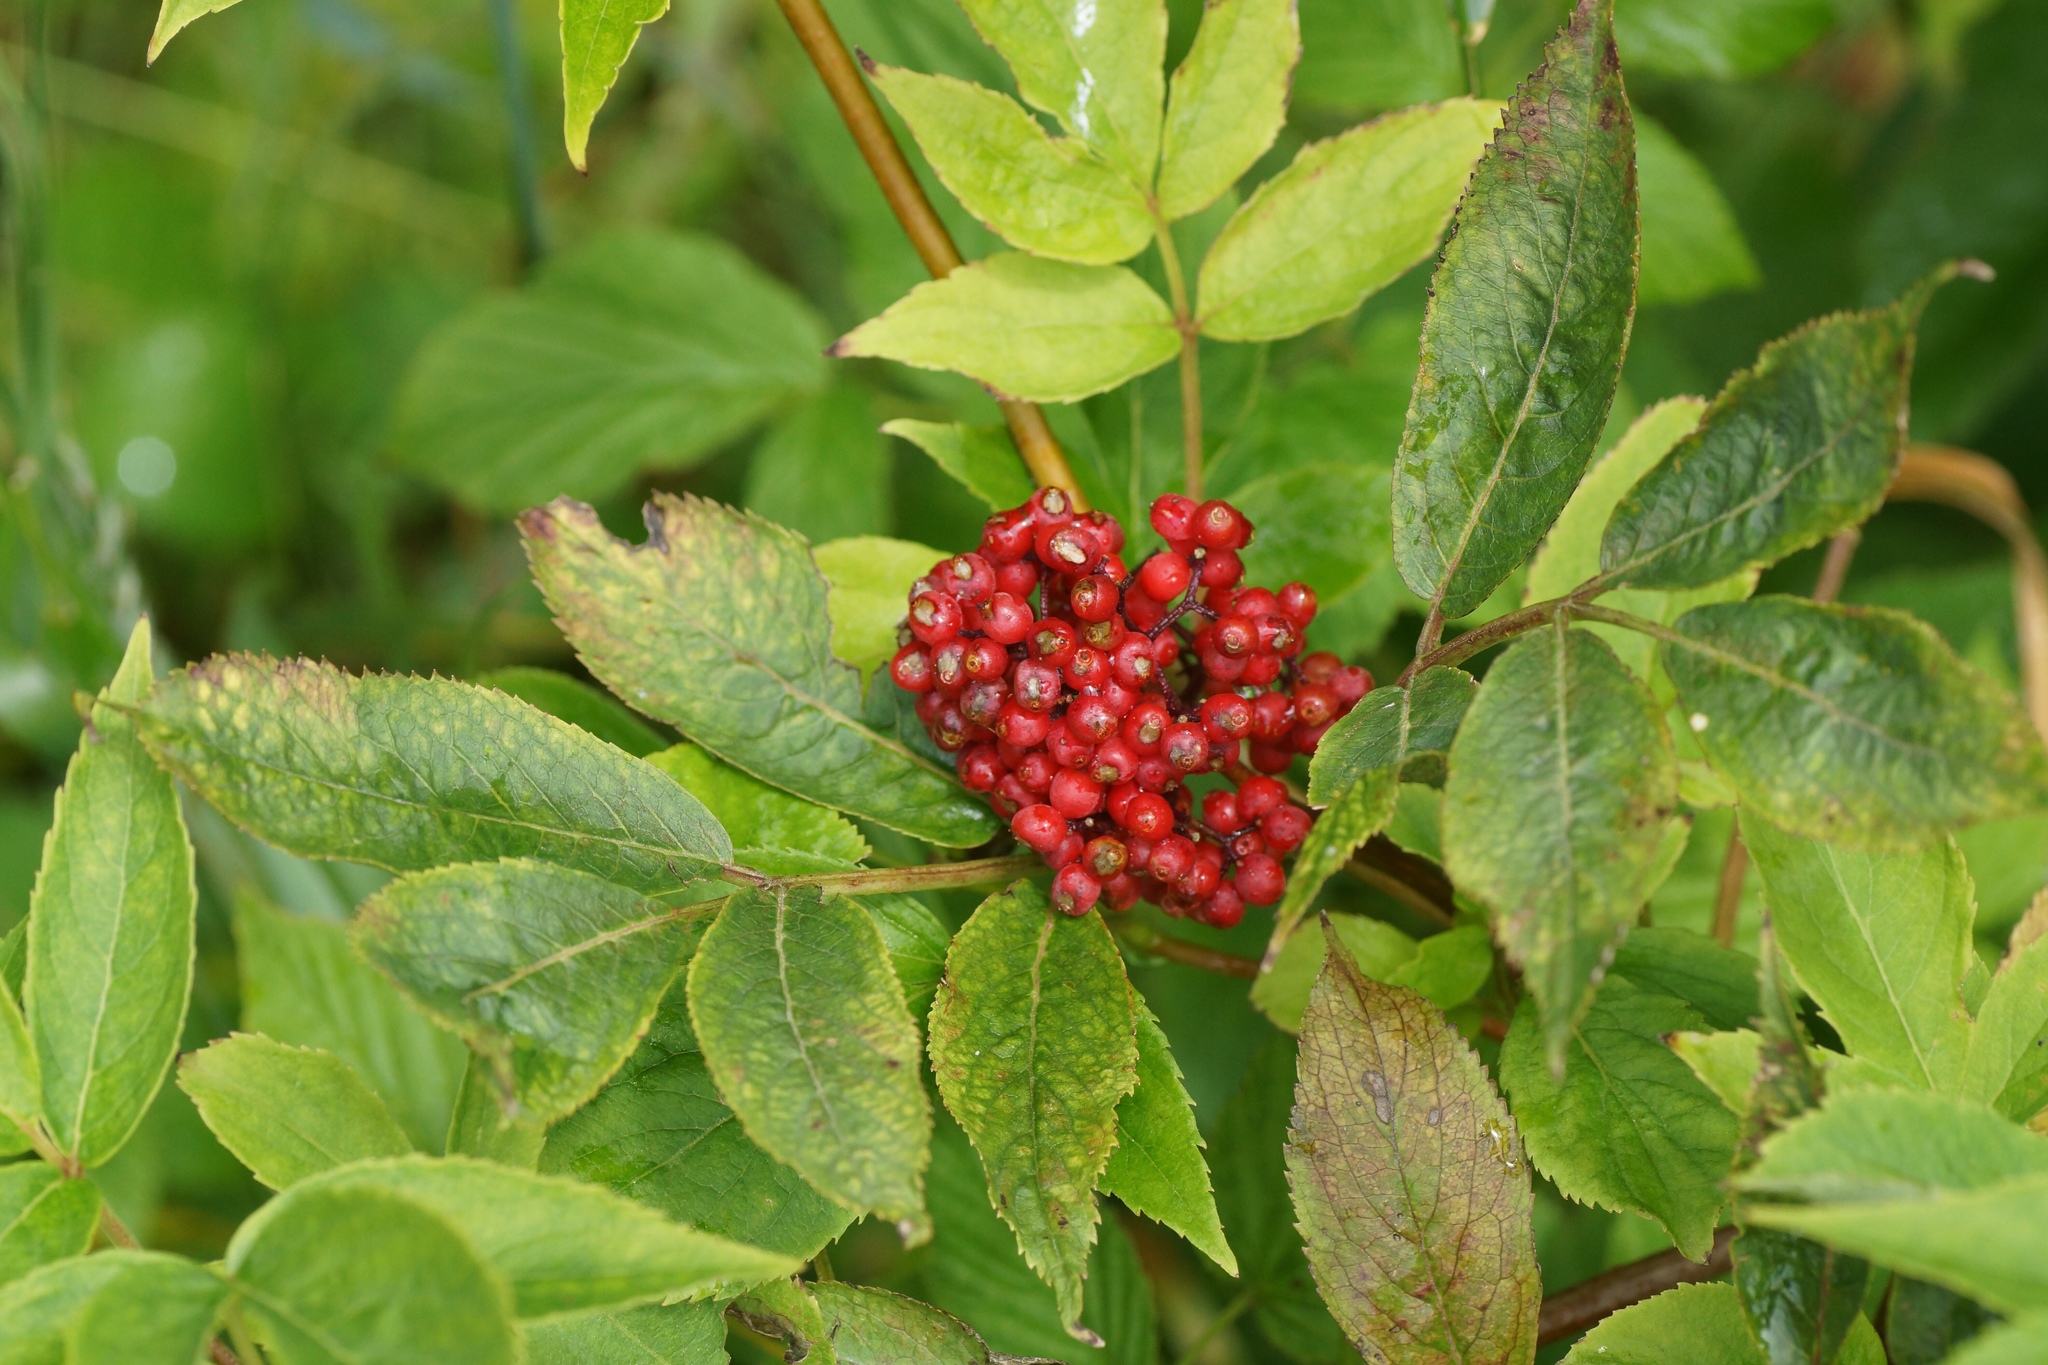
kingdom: Plantae
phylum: Tracheophyta
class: Magnoliopsida
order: Dipsacales
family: Viburnaceae
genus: Sambucus
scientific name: Sambucus racemosa
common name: Red-berried elder
